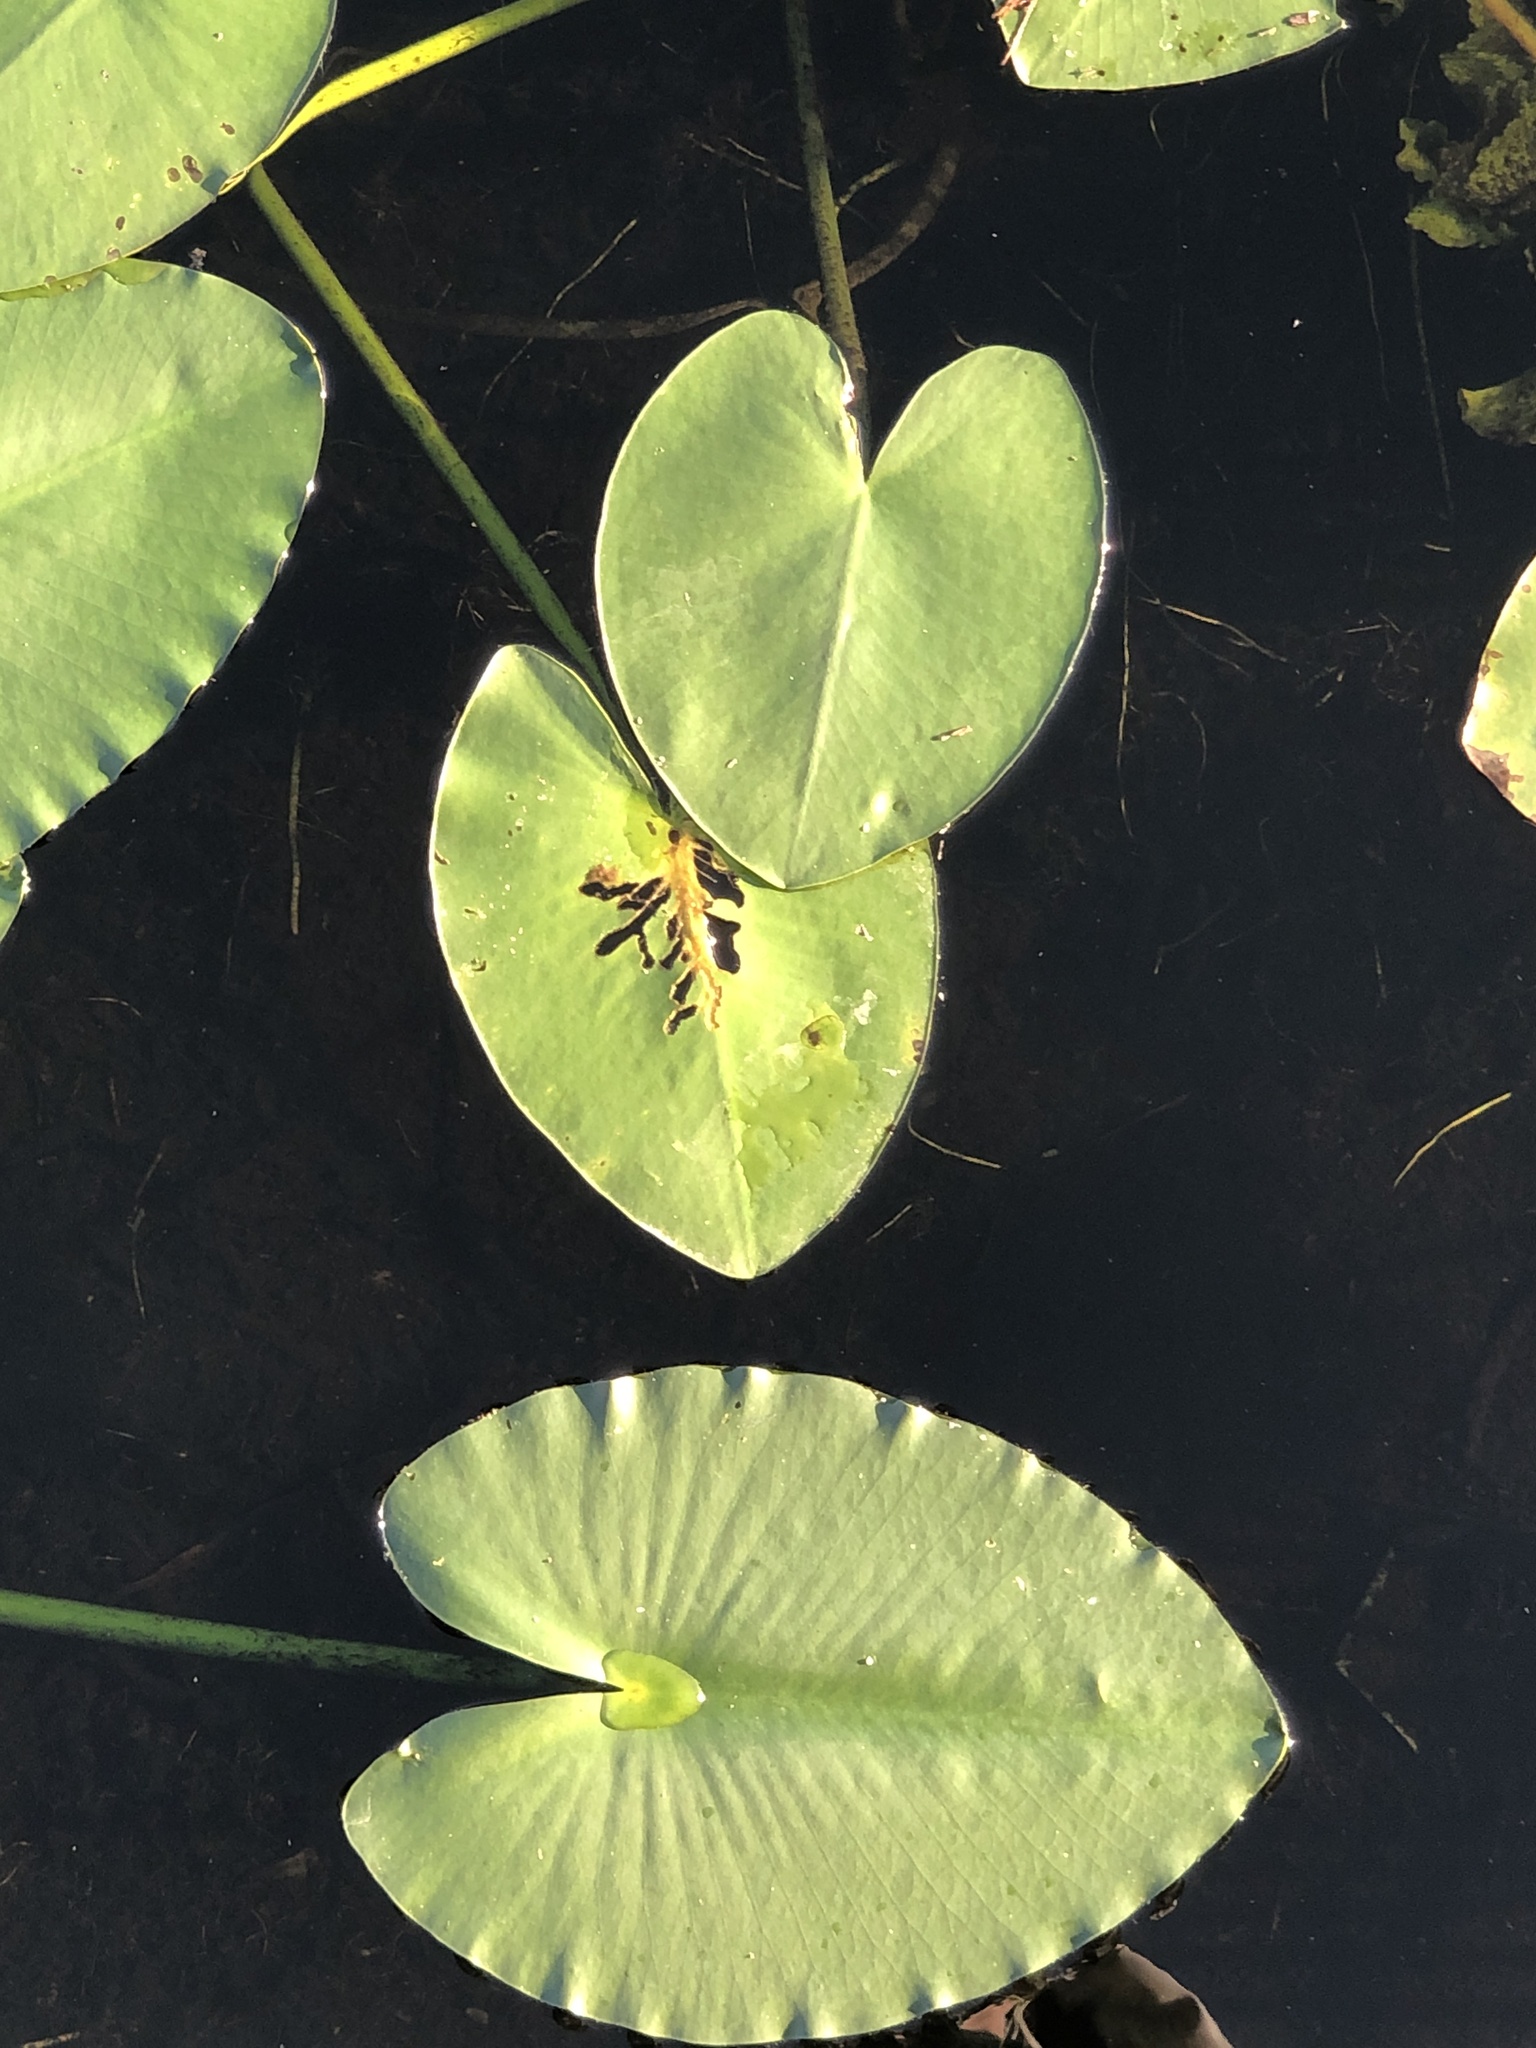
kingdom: Plantae
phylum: Tracheophyta
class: Magnoliopsida
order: Nymphaeales
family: Nymphaeaceae
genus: Nuphar
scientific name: Nuphar advena
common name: Spatter-dock
